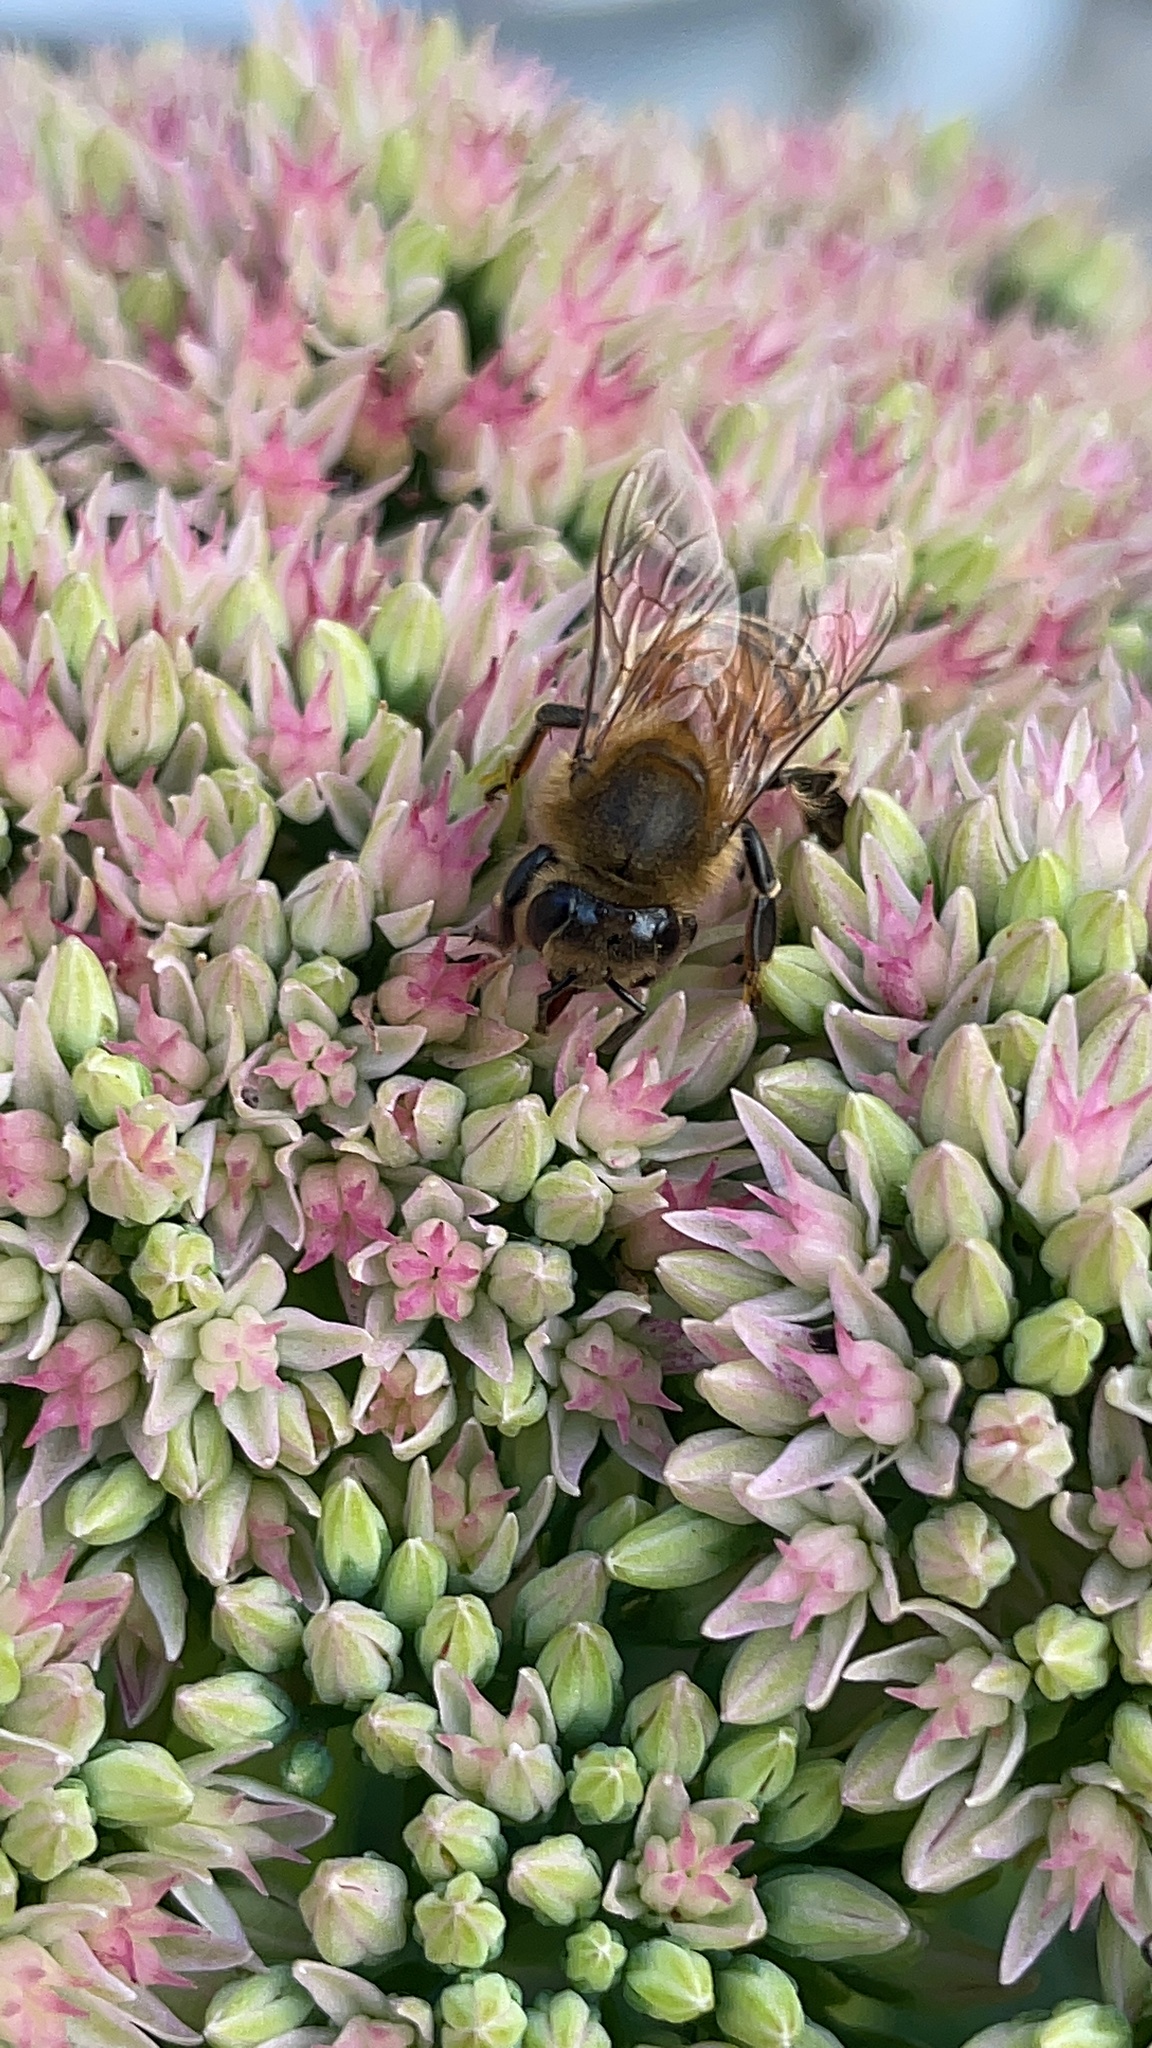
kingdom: Animalia
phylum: Arthropoda
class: Insecta
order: Hymenoptera
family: Apidae
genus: Apis
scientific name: Apis mellifera
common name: Honey bee
